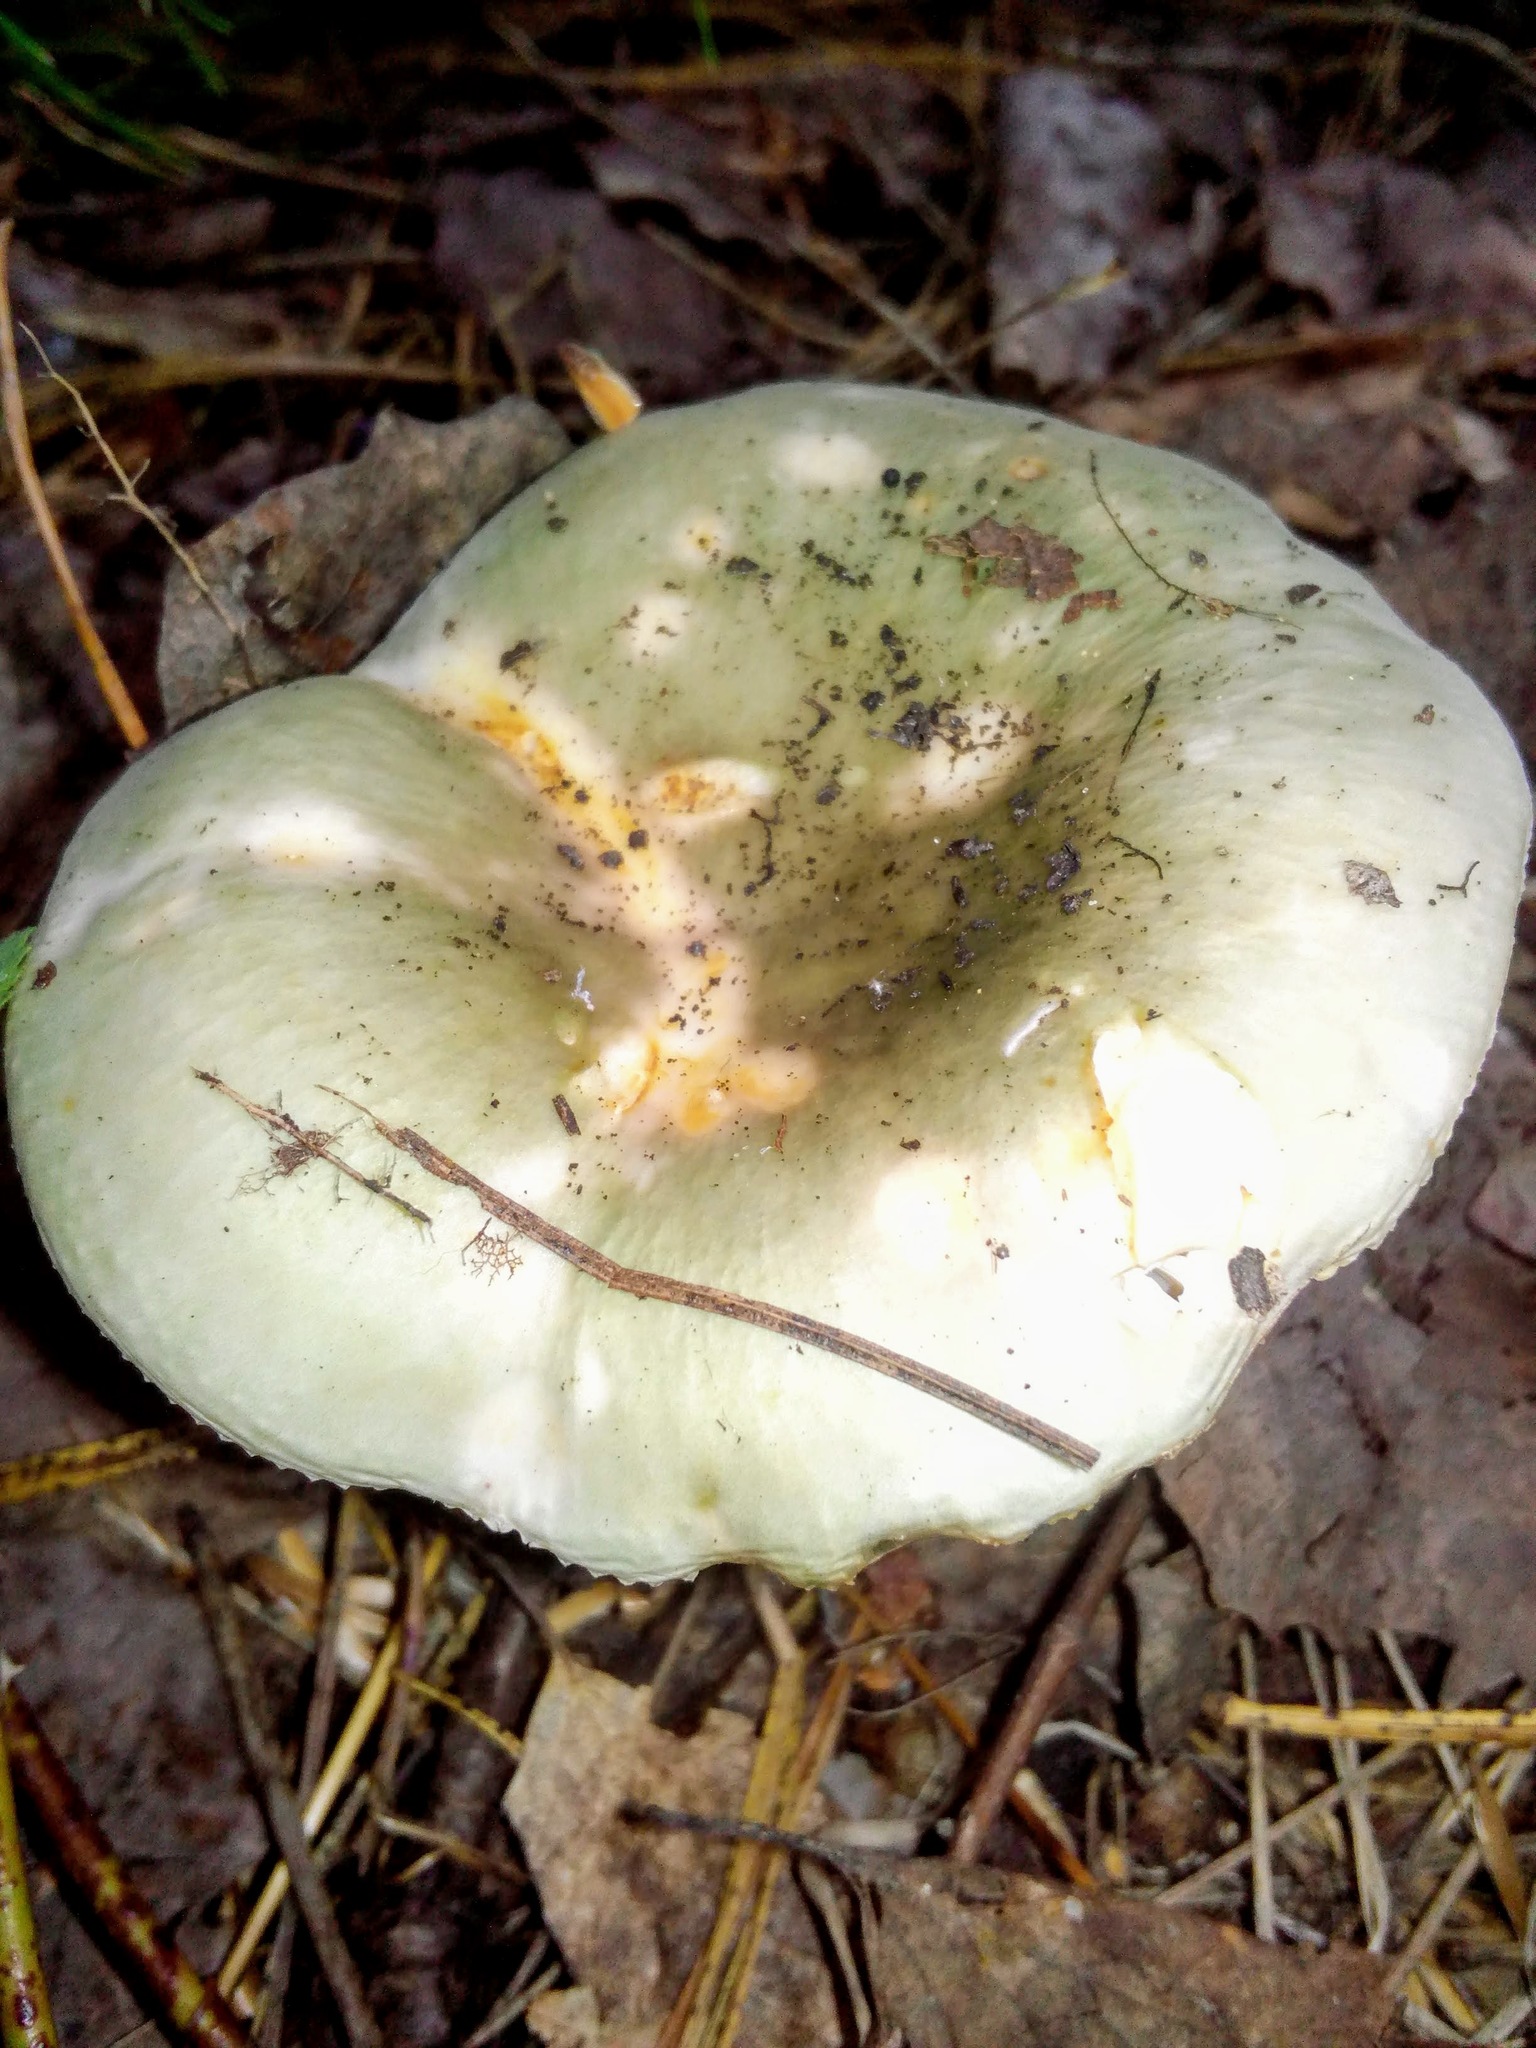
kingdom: Fungi
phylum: Basidiomycota
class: Agaricomycetes
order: Russulales
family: Russulaceae
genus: Russula
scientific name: Russula aeruginea
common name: Green brittlegill
